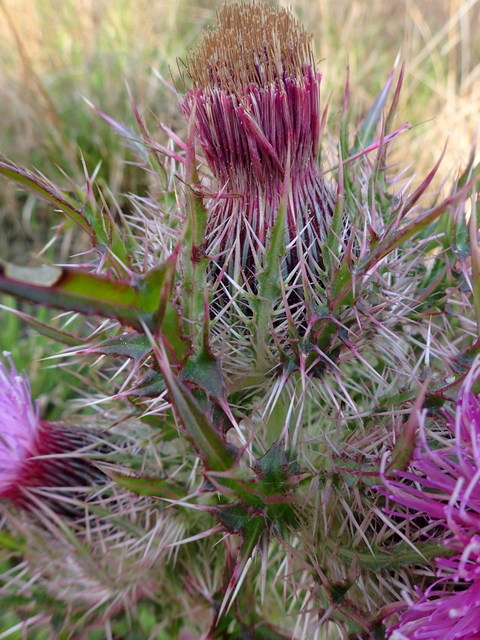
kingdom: Plantae
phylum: Tracheophyta
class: Magnoliopsida
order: Asterales
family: Asteraceae
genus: Cirsium
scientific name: Cirsium horridulum
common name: Bristly thistle
